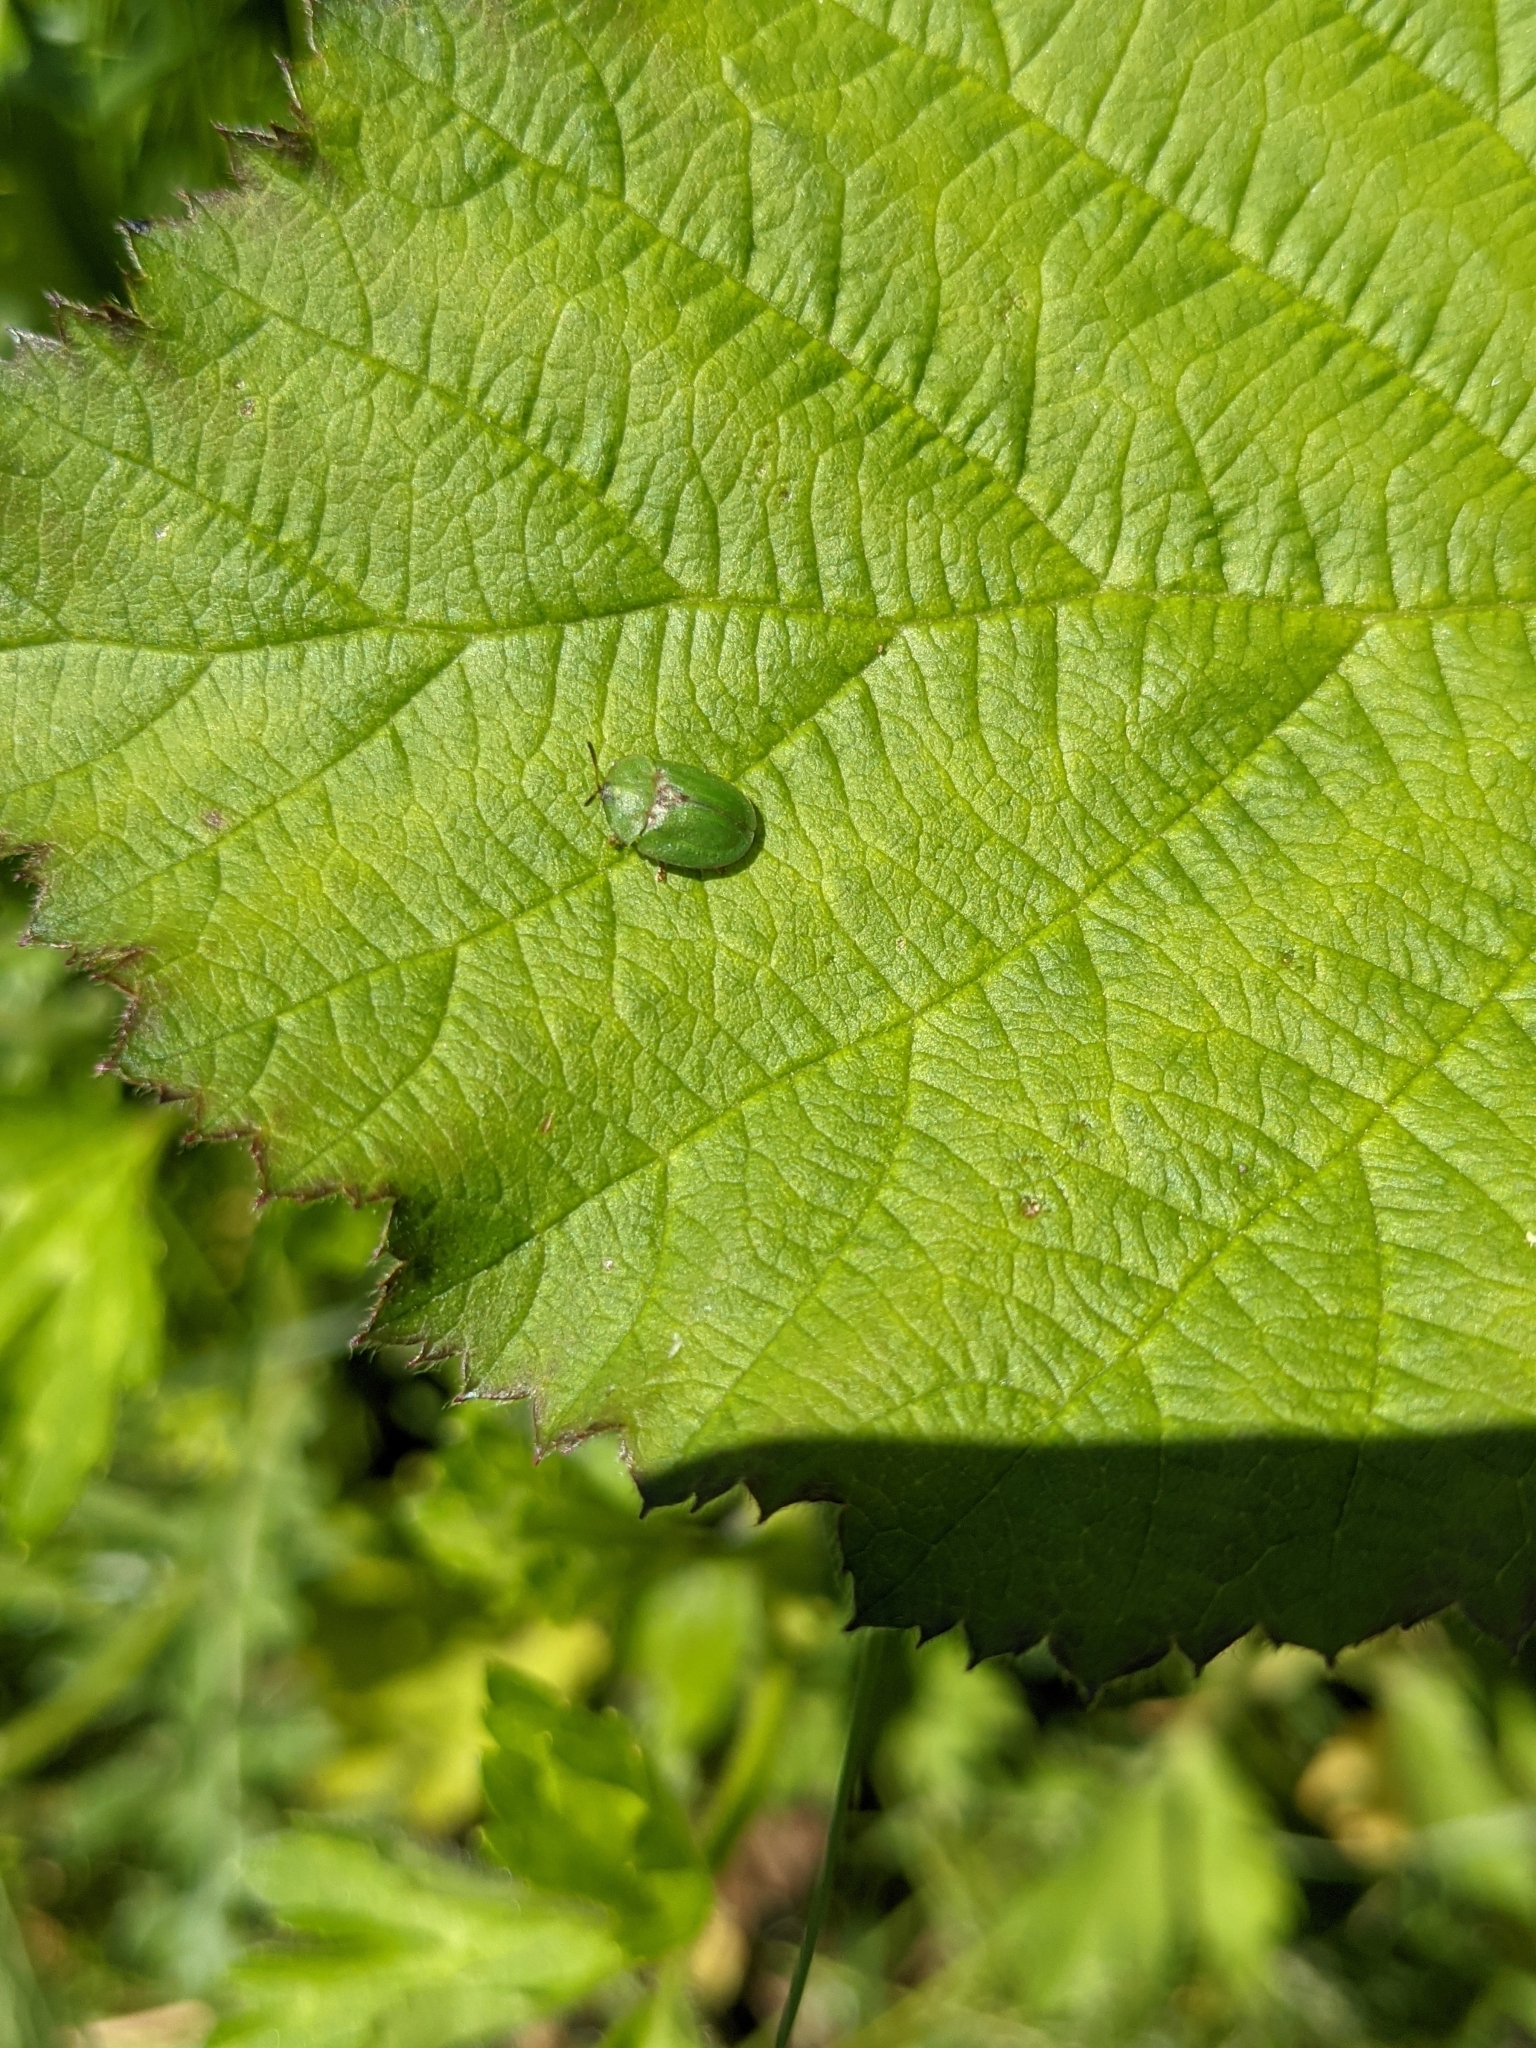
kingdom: Animalia
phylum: Arthropoda
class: Insecta
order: Coleoptera
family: Chrysomelidae
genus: Cassida
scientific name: Cassida rubiginosa
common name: Thistle tortoise beetle
